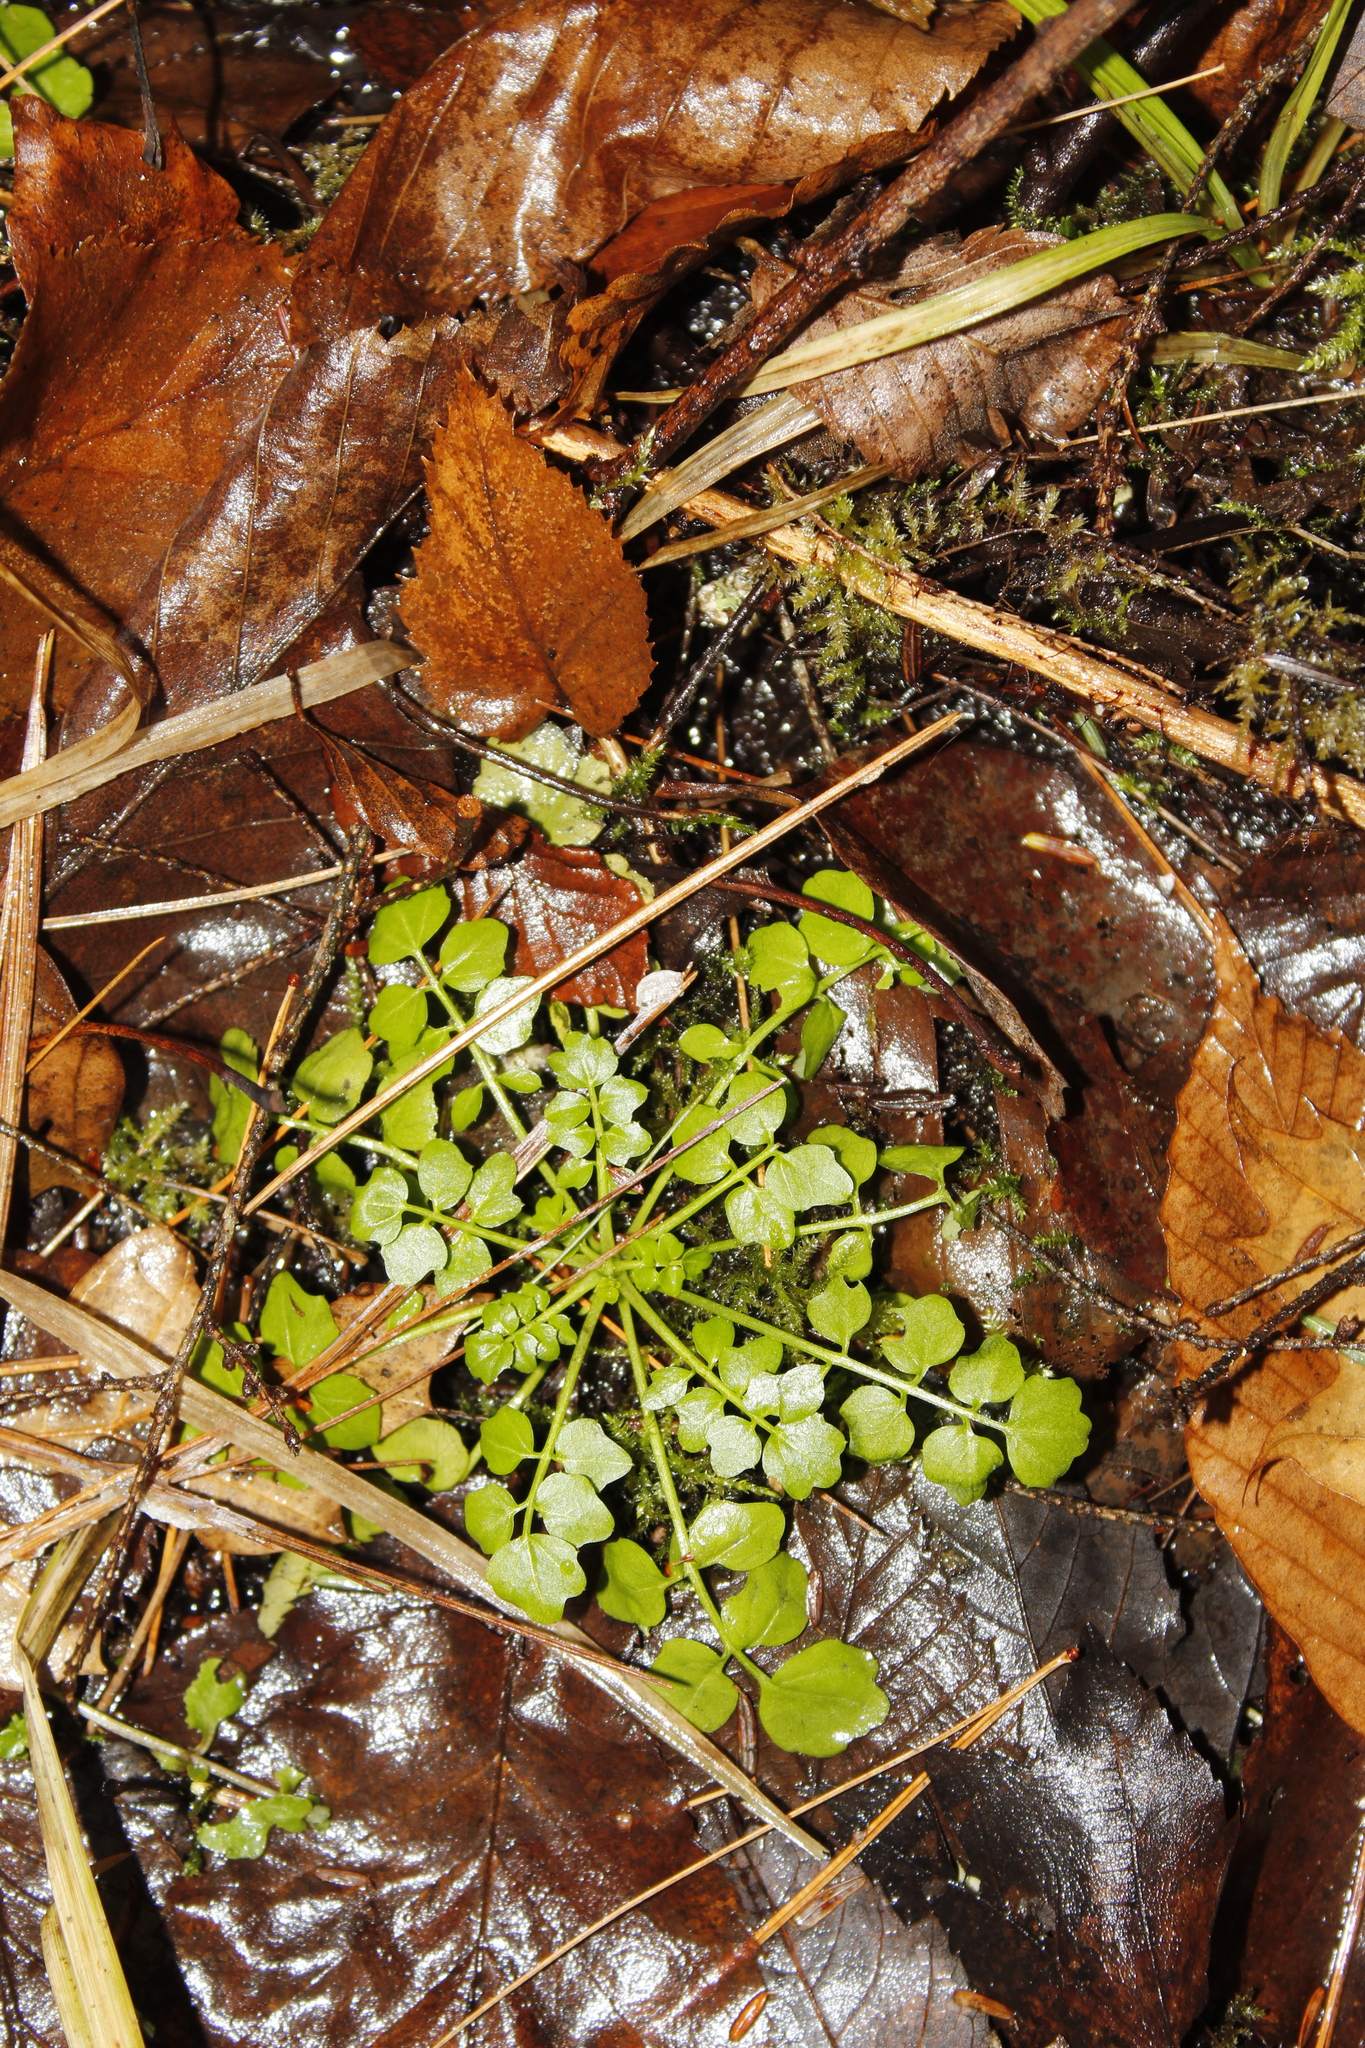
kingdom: Plantae
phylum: Tracheophyta
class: Magnoliopsida
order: Brassicales
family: Brassicaceae
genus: Cardamine
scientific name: Cardamine pensylvanica
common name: Pennsylvania bittercress
